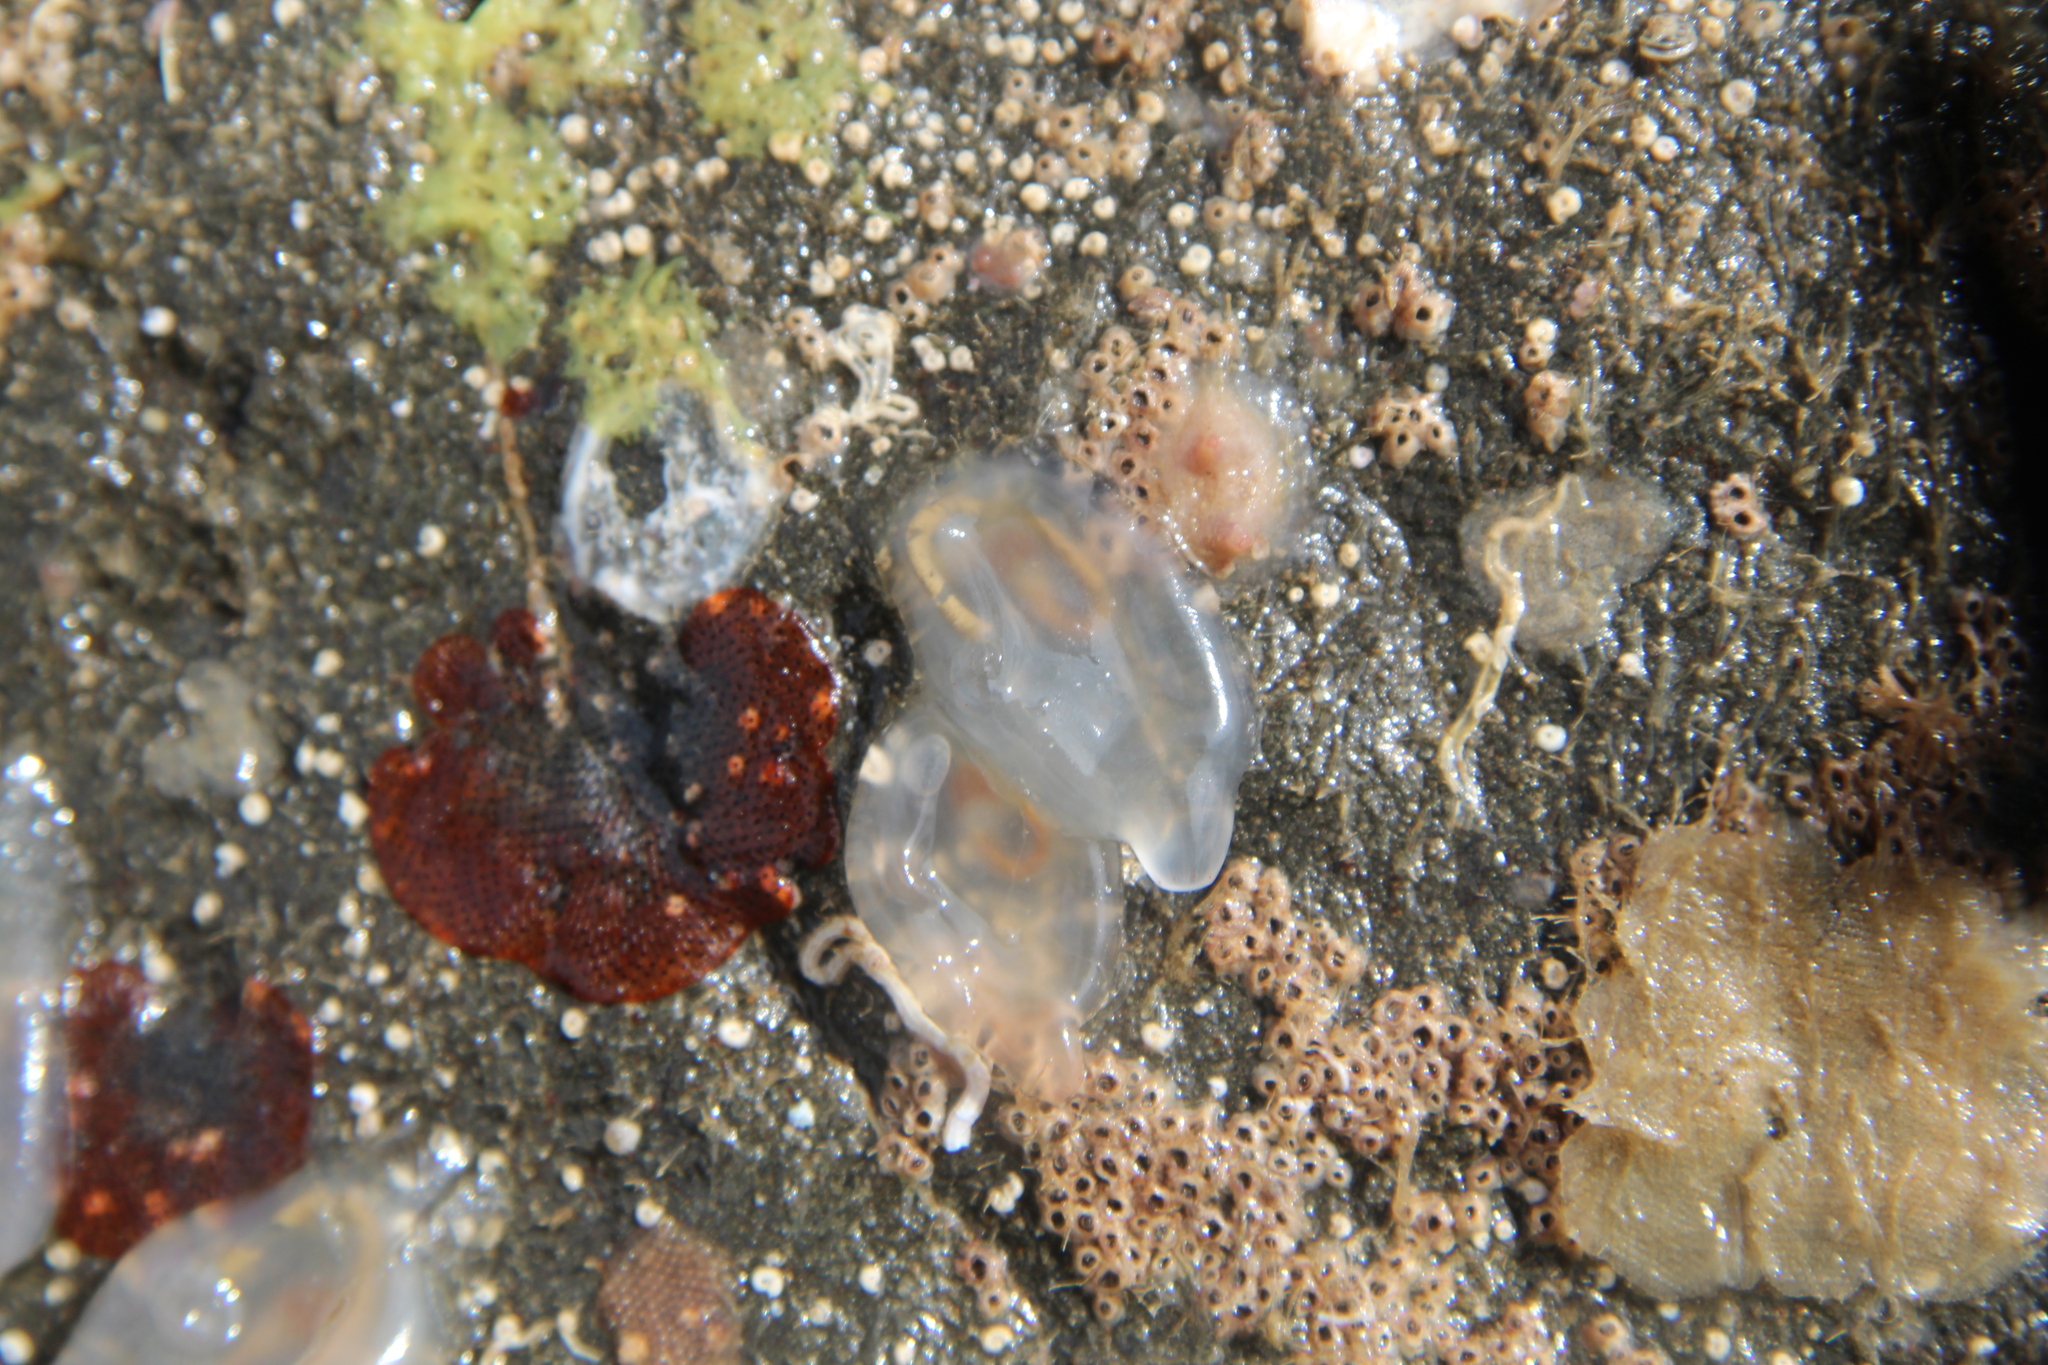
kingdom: Animalia
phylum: Chordata
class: Ascidiacea
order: Phlebobranchia
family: Corellidae
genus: Corella
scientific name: Corella eumyota
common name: Orange-tipped sea squirt
